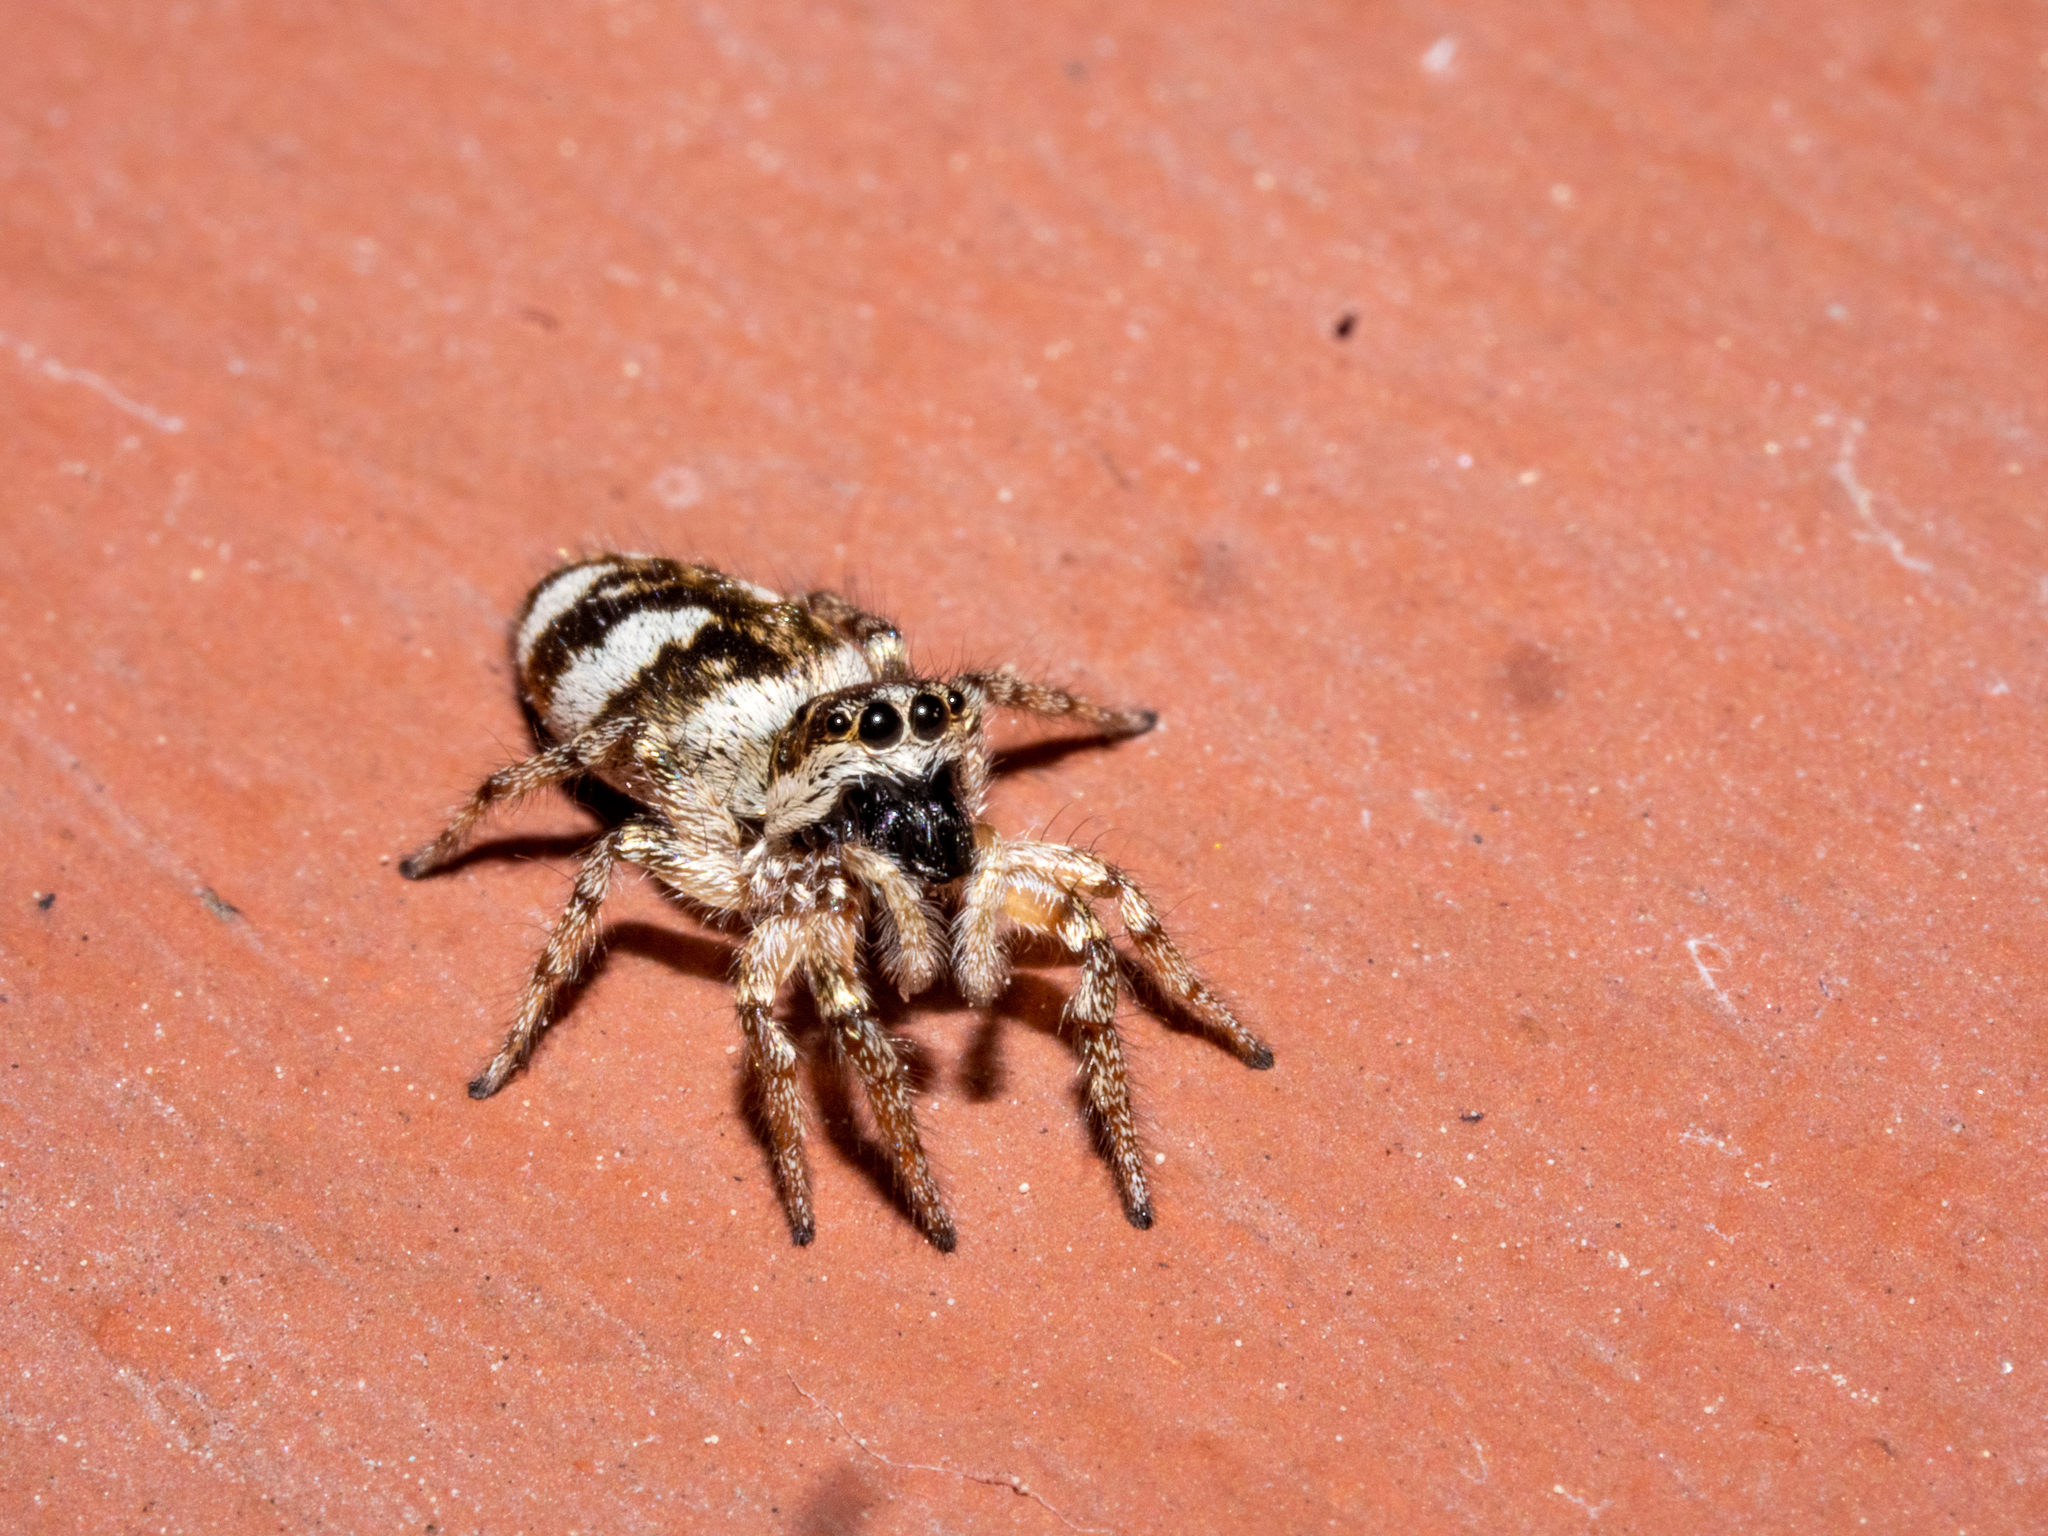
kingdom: Animalia
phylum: Arthropoda
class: Arachnida
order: Araneae
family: Salticidae
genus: Salticus
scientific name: Salticus scenicus
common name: Zebra jumper
